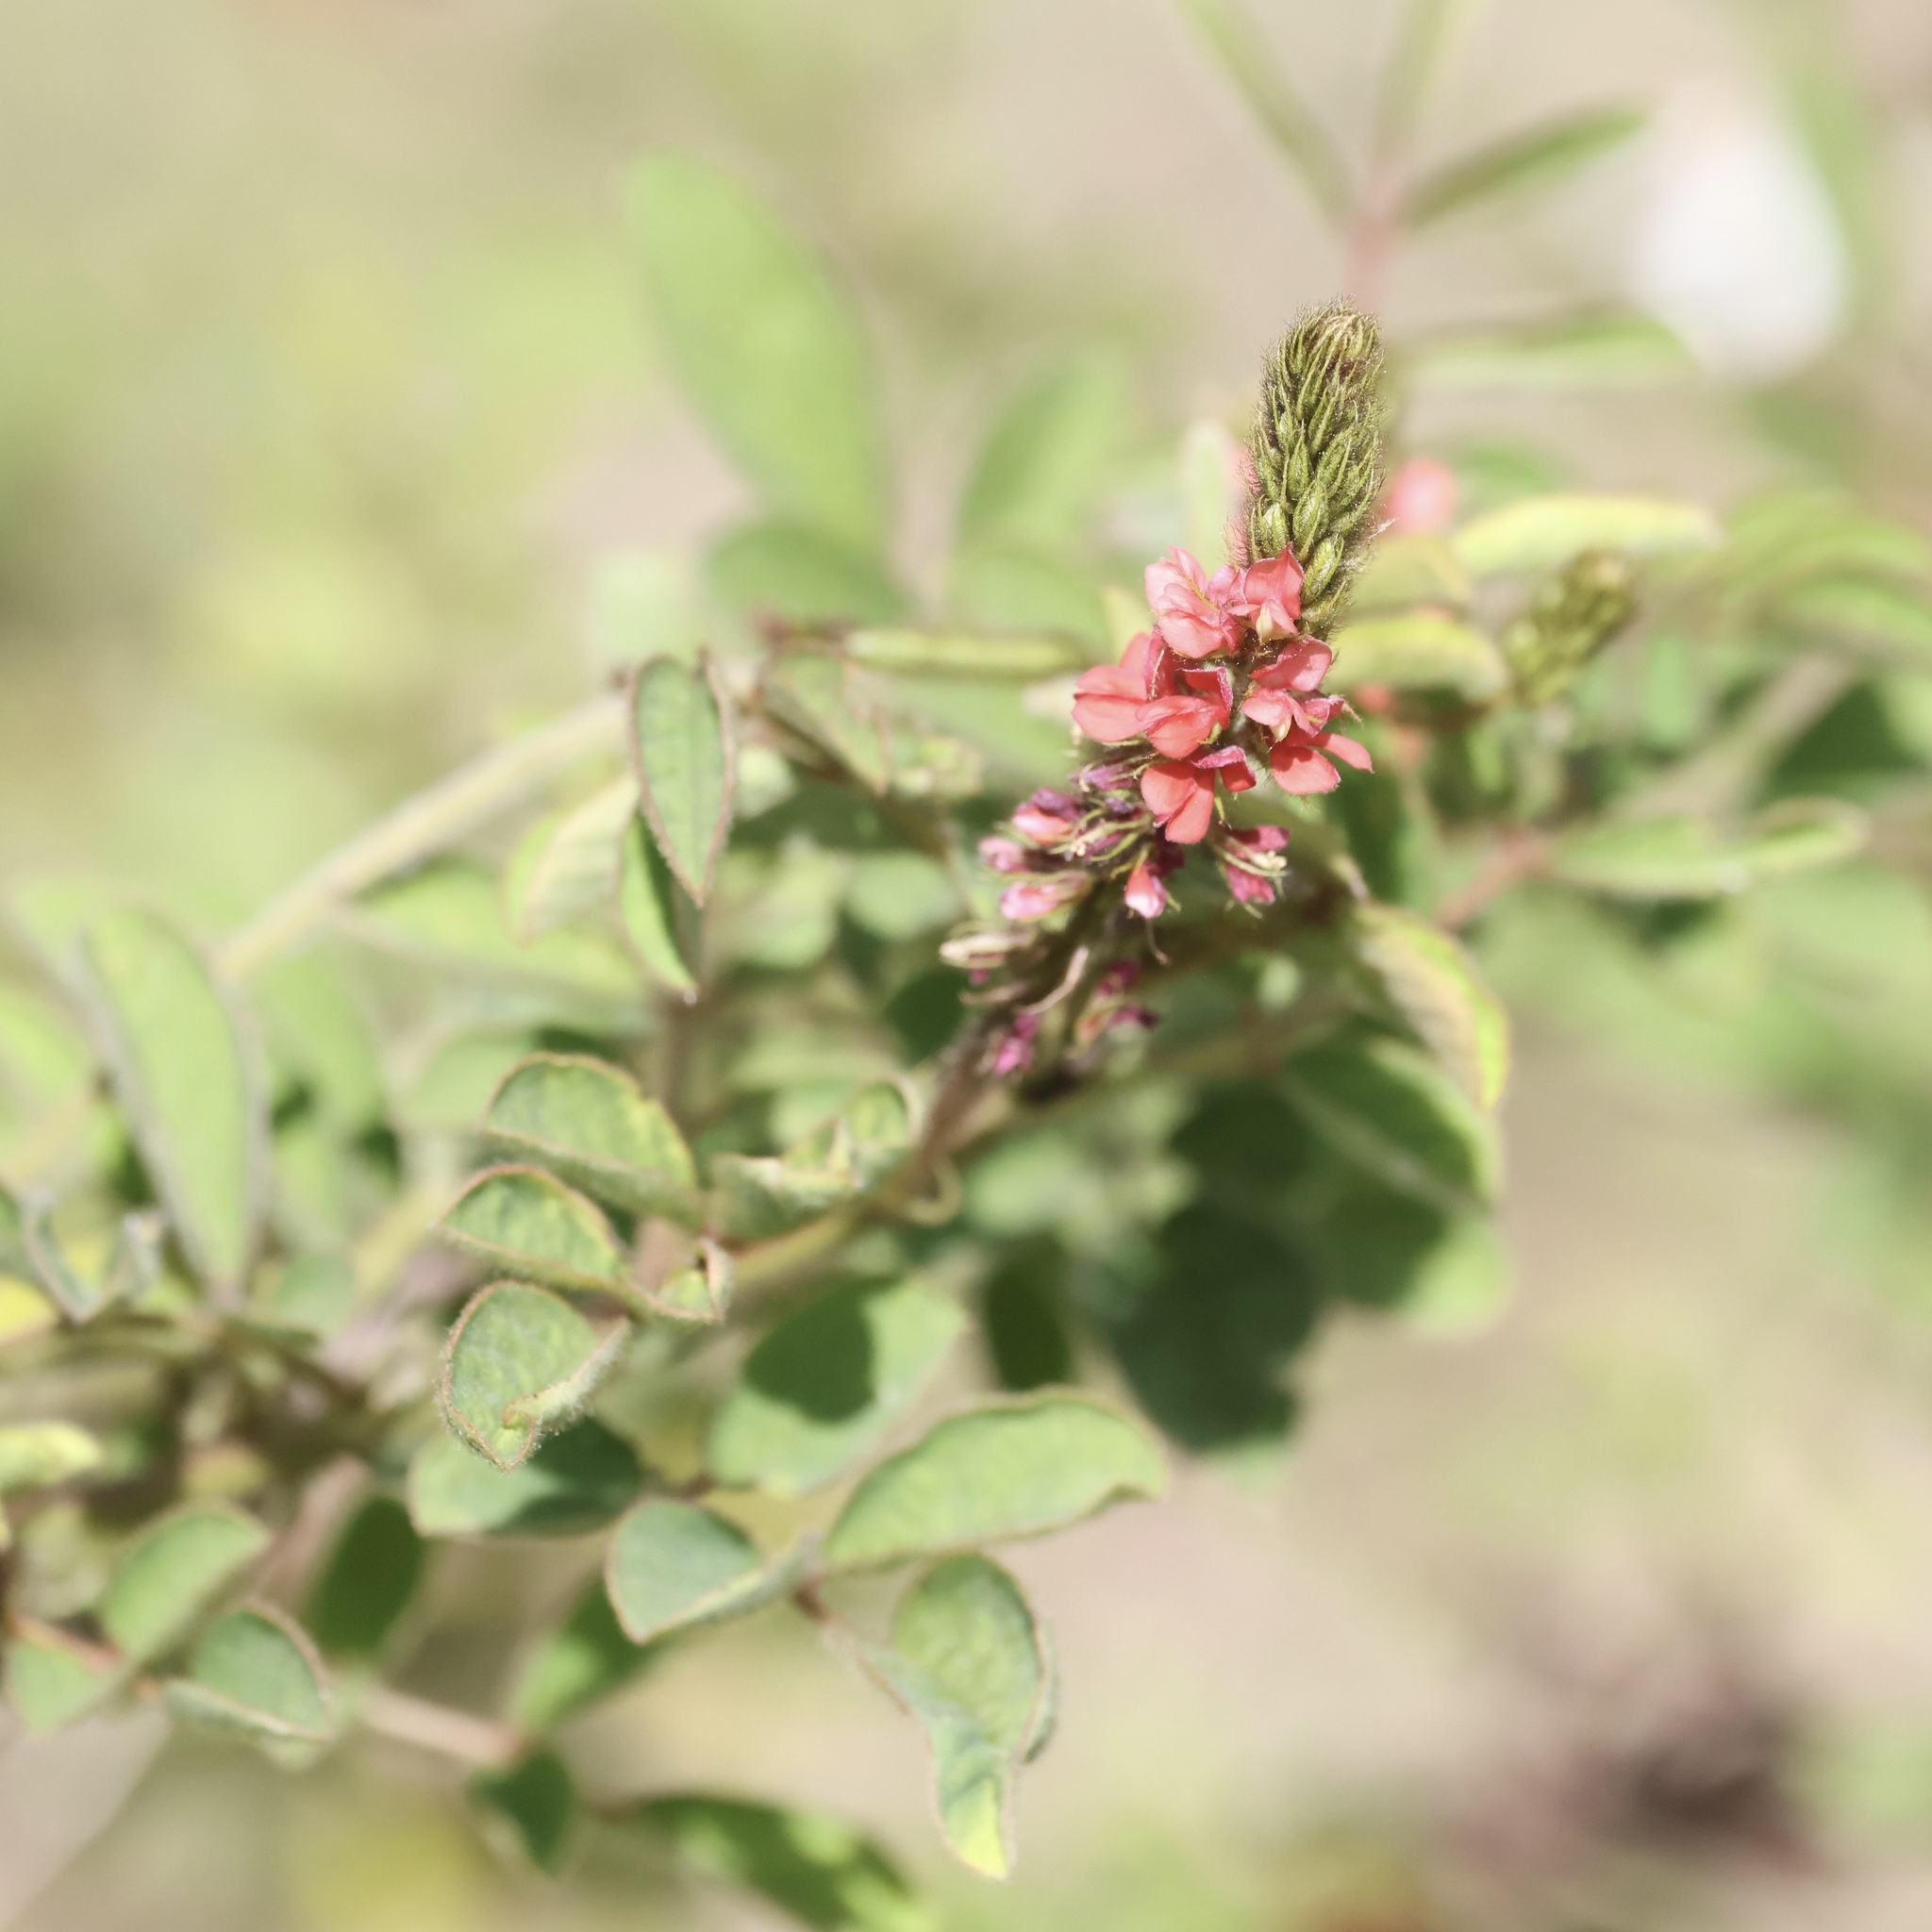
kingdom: Plantae
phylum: Tracheophyta
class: Magnoliopsida
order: Fabales
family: Fabaceae
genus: Indigofera
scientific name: Indigofera hirsuta
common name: Hairy indigo
